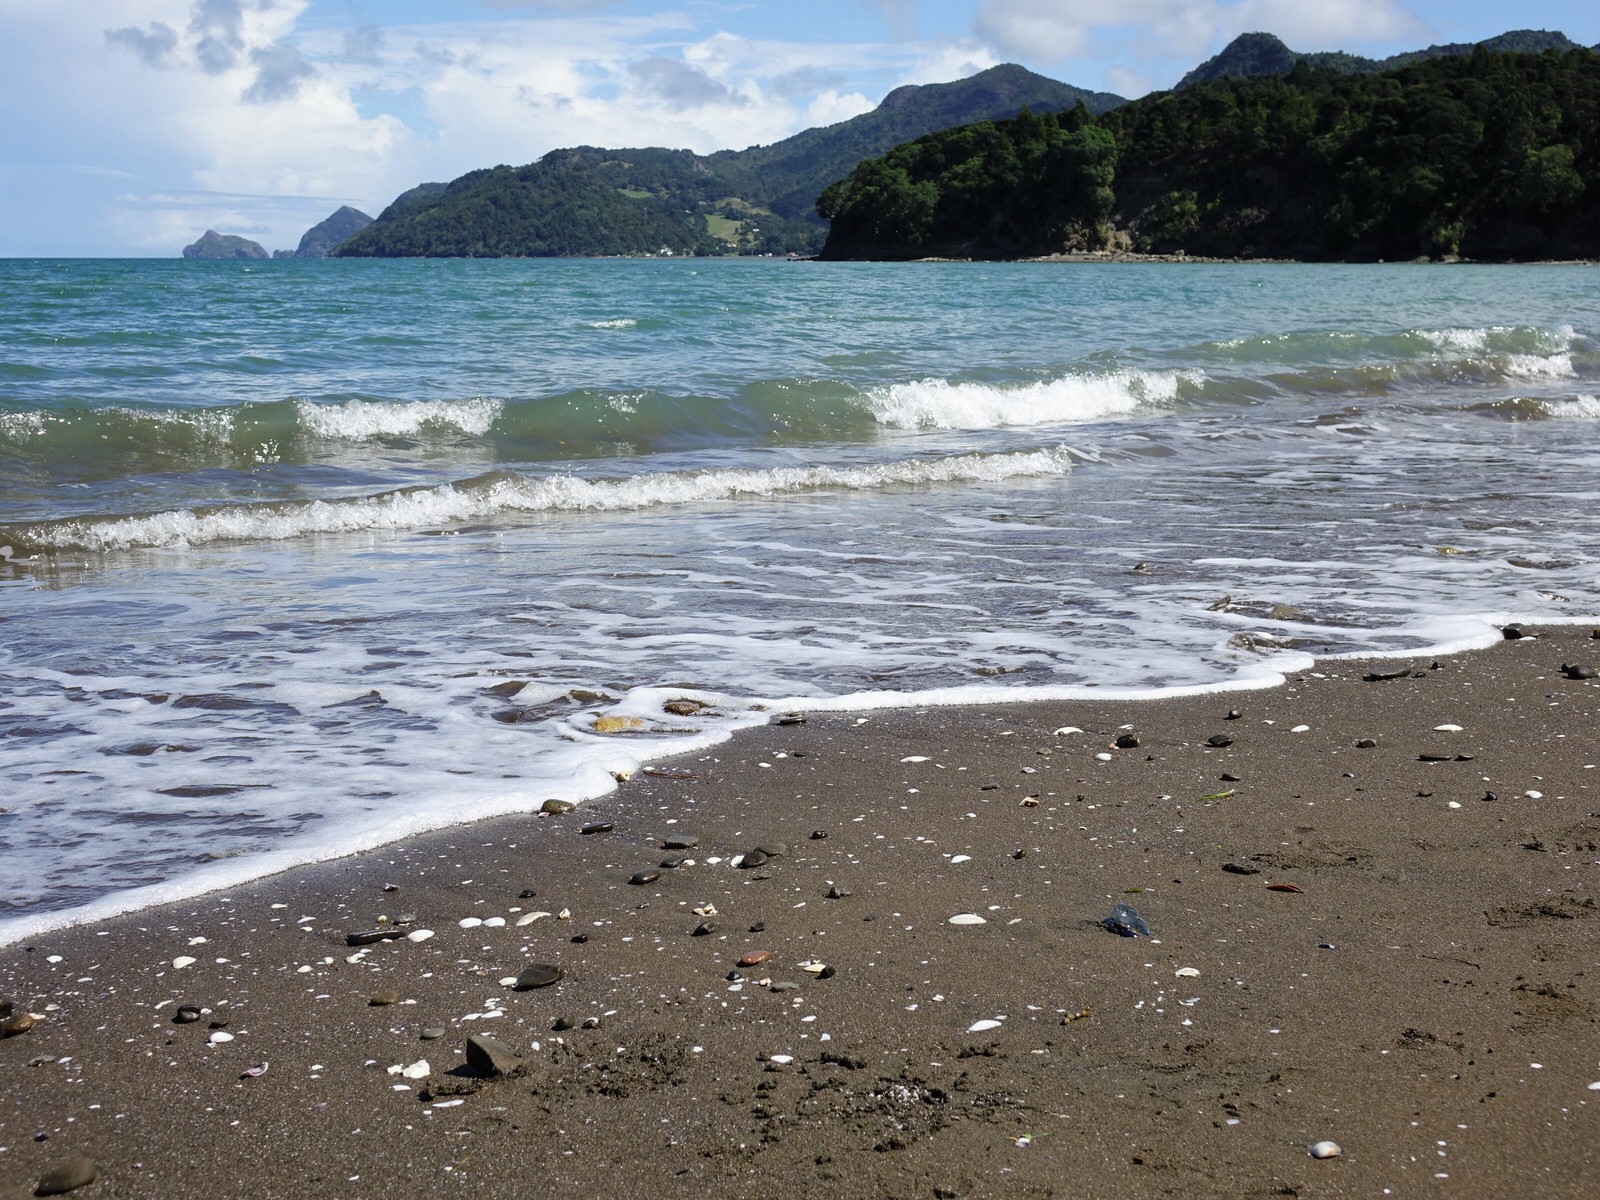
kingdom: Animalia
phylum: Cnidaria
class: Hydrozoa
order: Siphonophorae
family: Physaliidae
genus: Physalia
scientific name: Physalia physalis
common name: Portuguese man-of-war
